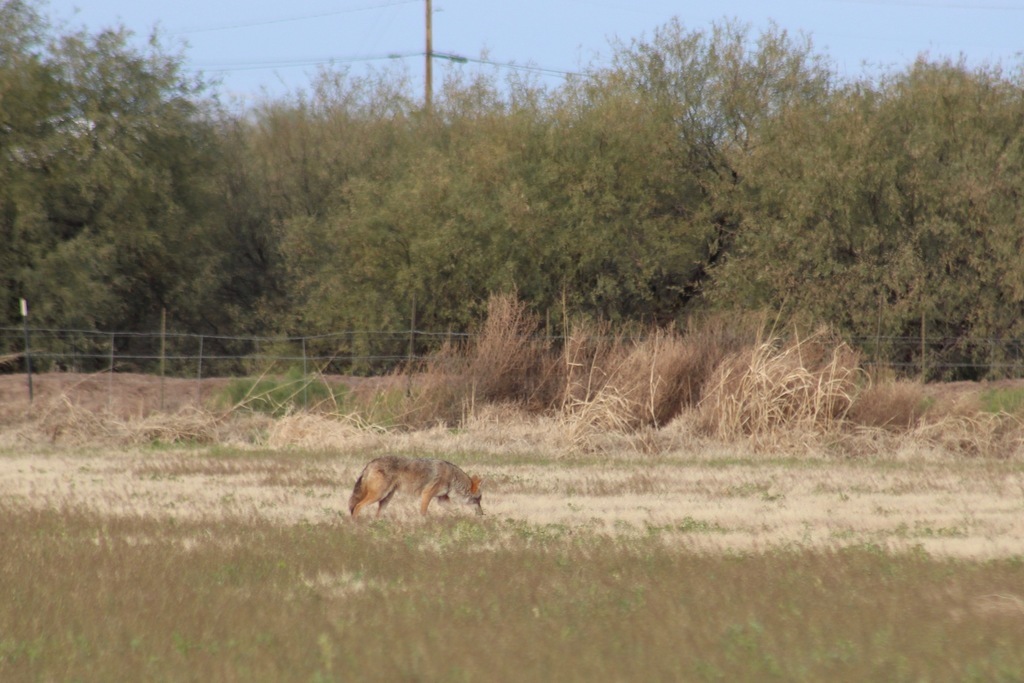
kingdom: Animalia
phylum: Chordata
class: Mammalia
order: Carnivora
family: Canidae
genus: Canis
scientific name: Canis latrans
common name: Coyote
